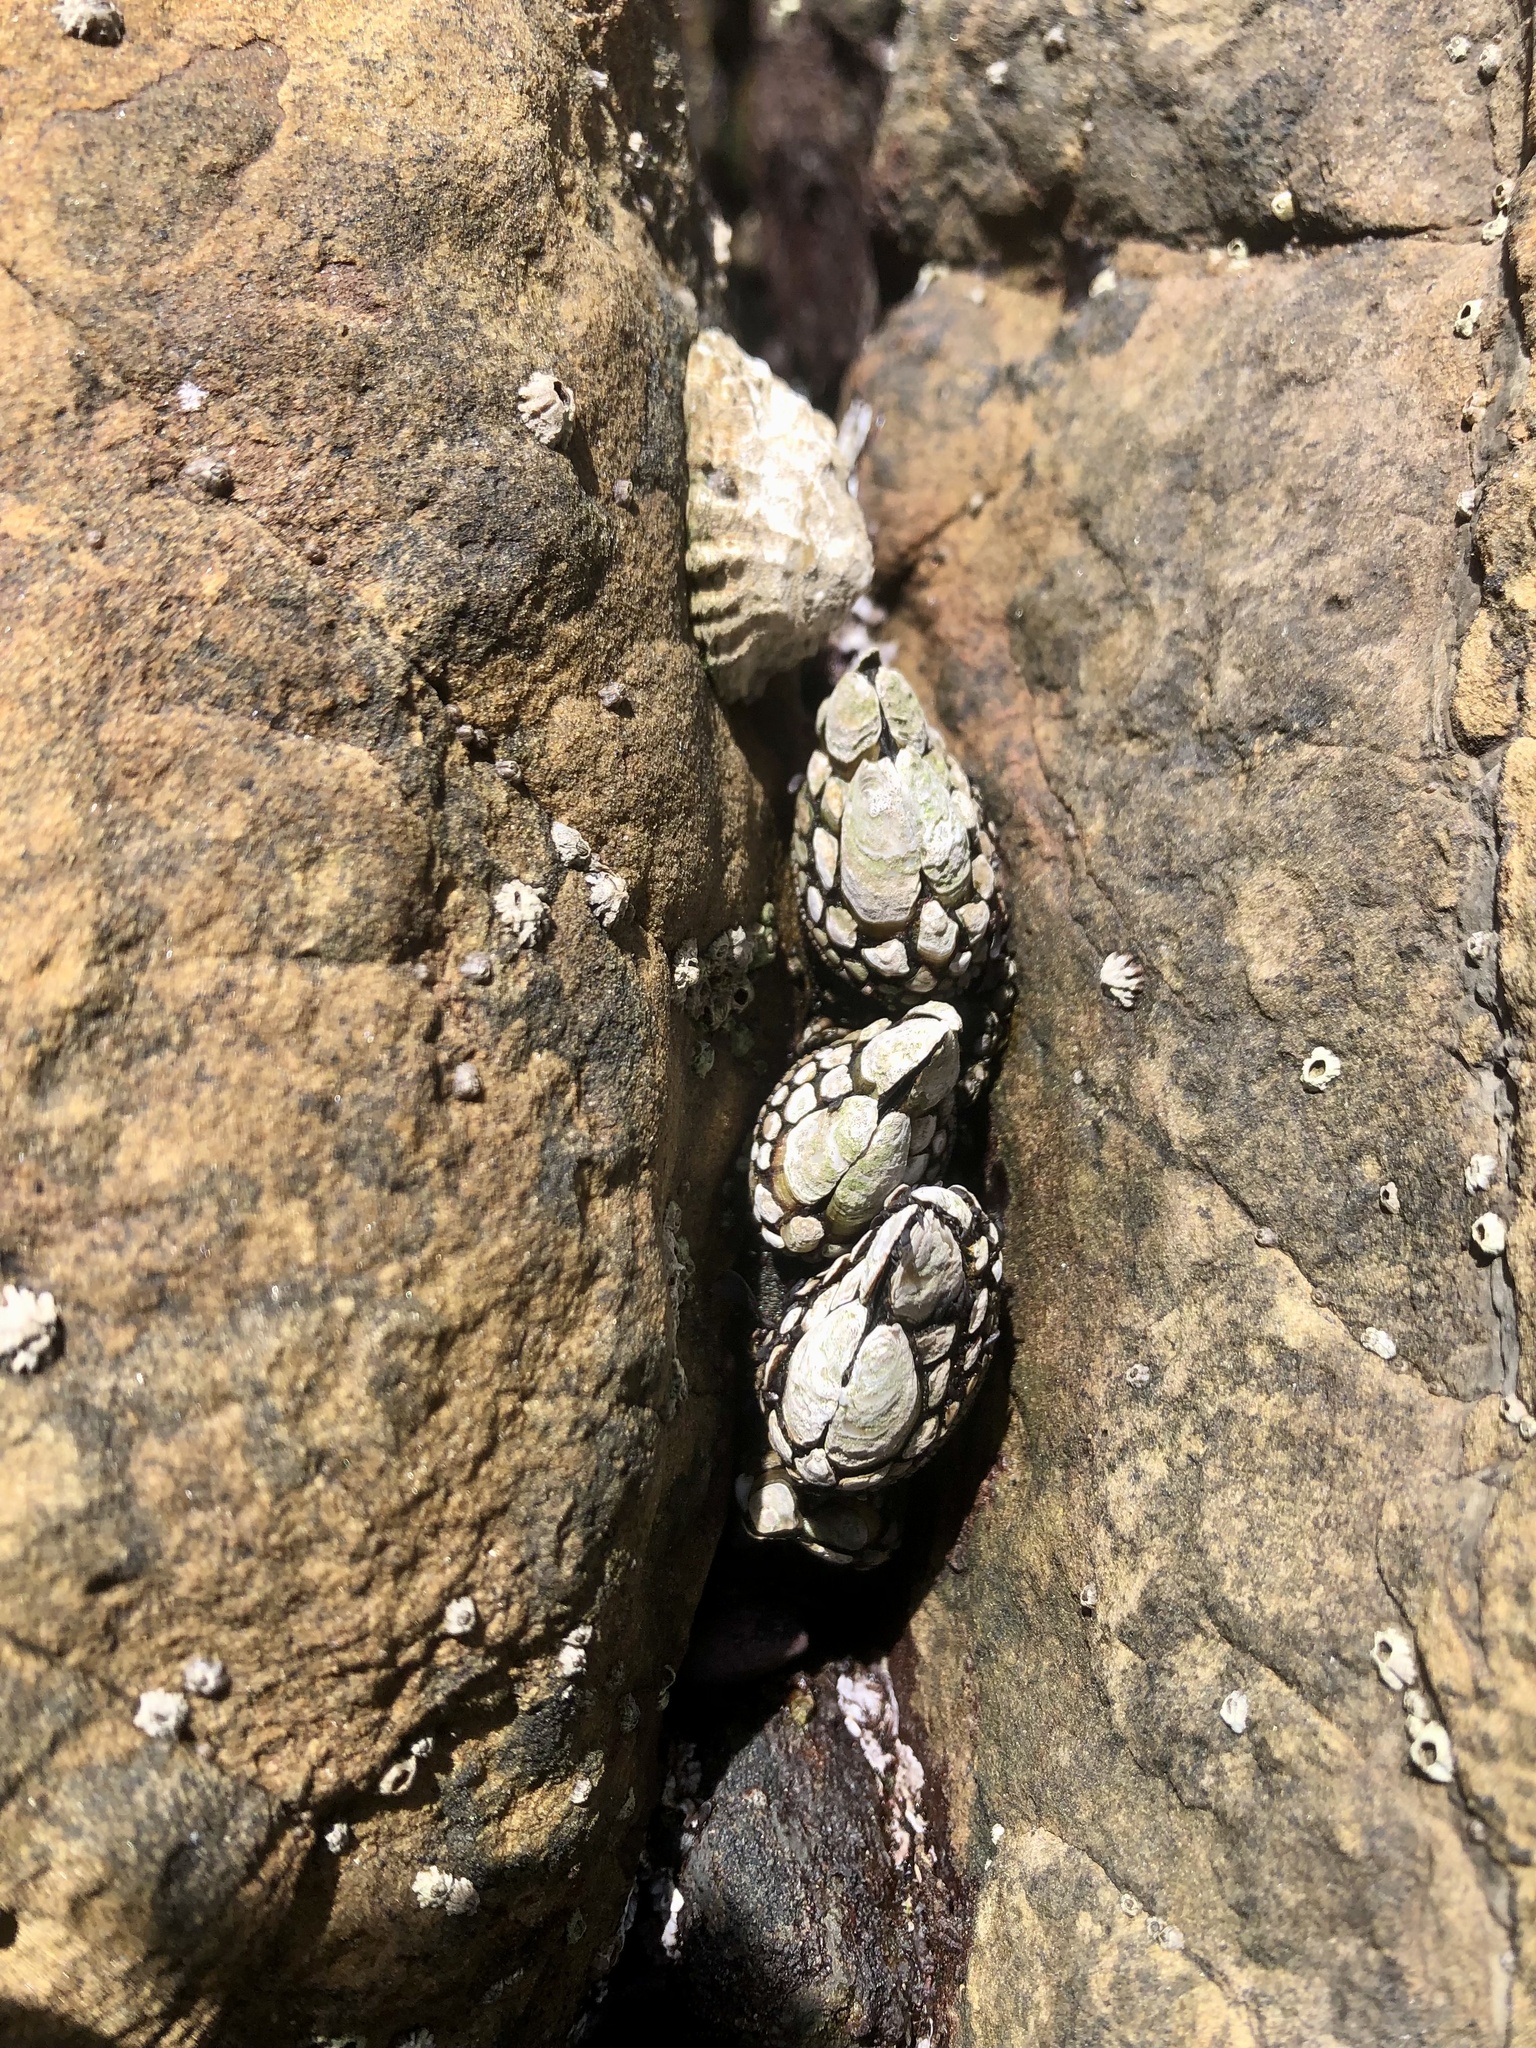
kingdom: Animalia
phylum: Arthropoda
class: Maxillopoda
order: Pedunculata
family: Pollicipedidae
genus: Pollicipes
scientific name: Pollicipes polymerus
